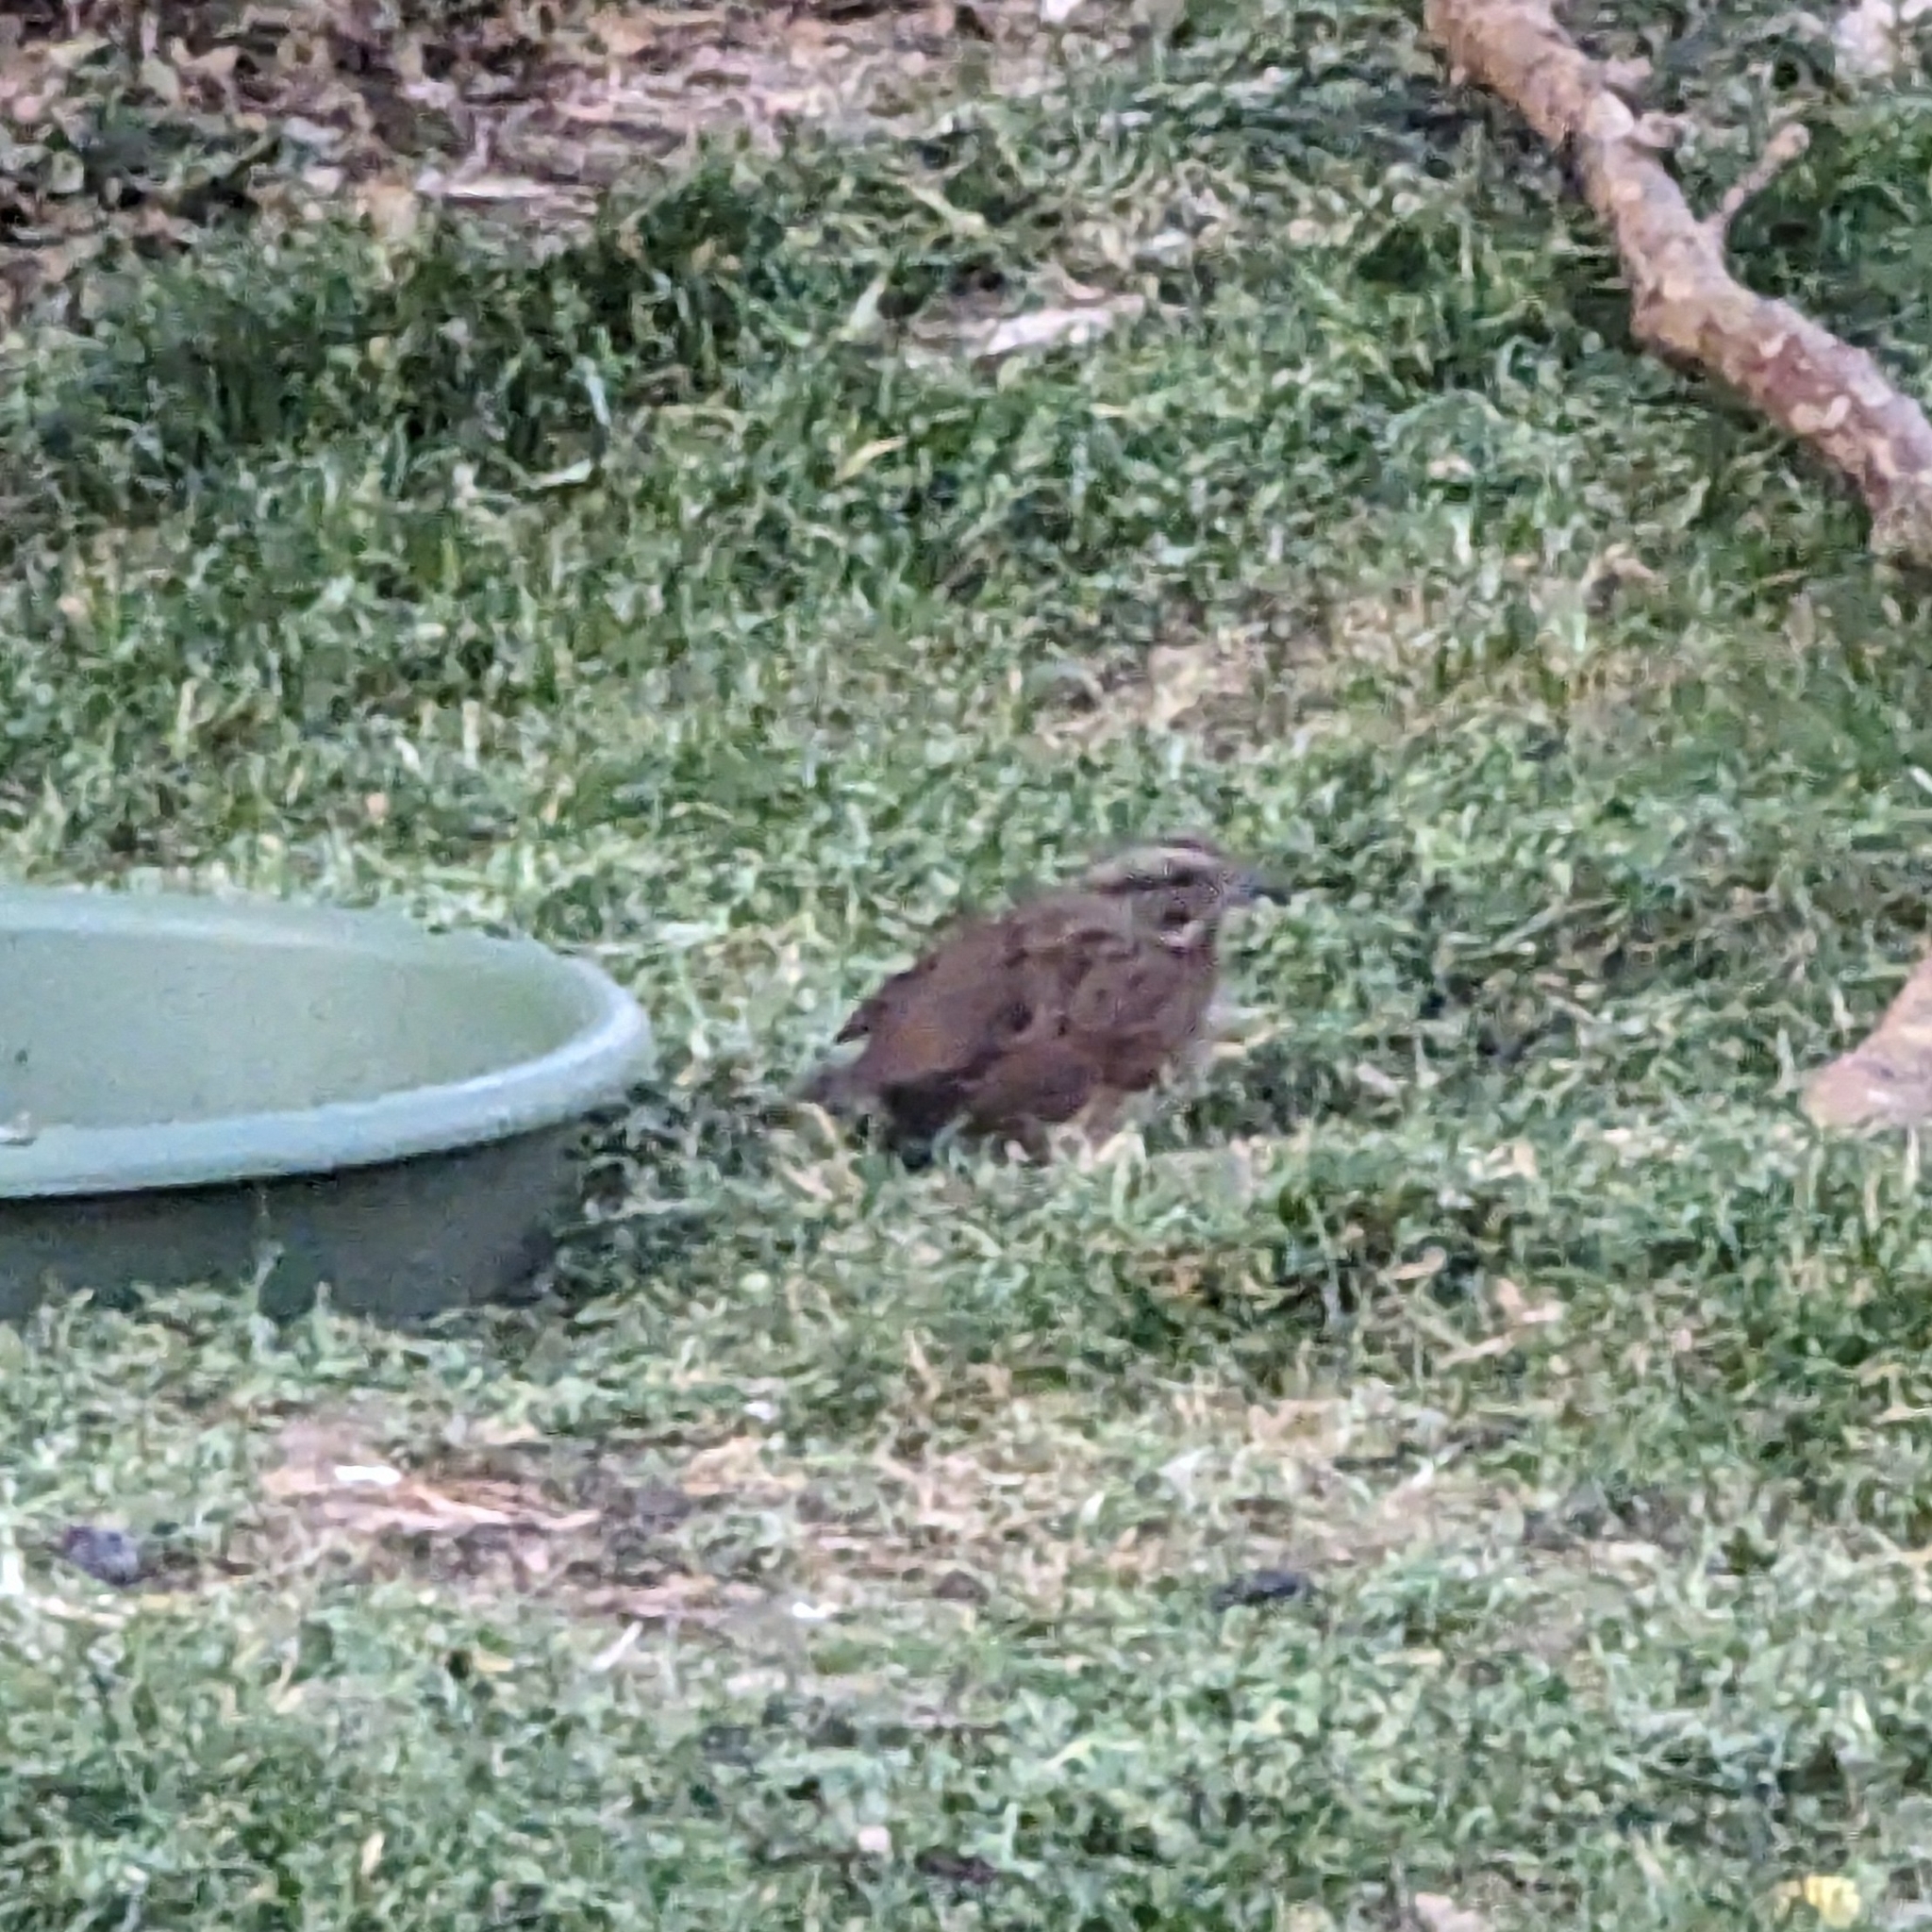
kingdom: Animalia
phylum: Chordata
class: Aves
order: Passeriformes
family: Passerellidae
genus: Melospiza
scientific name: Melospiza melodia
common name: Song sparrow
